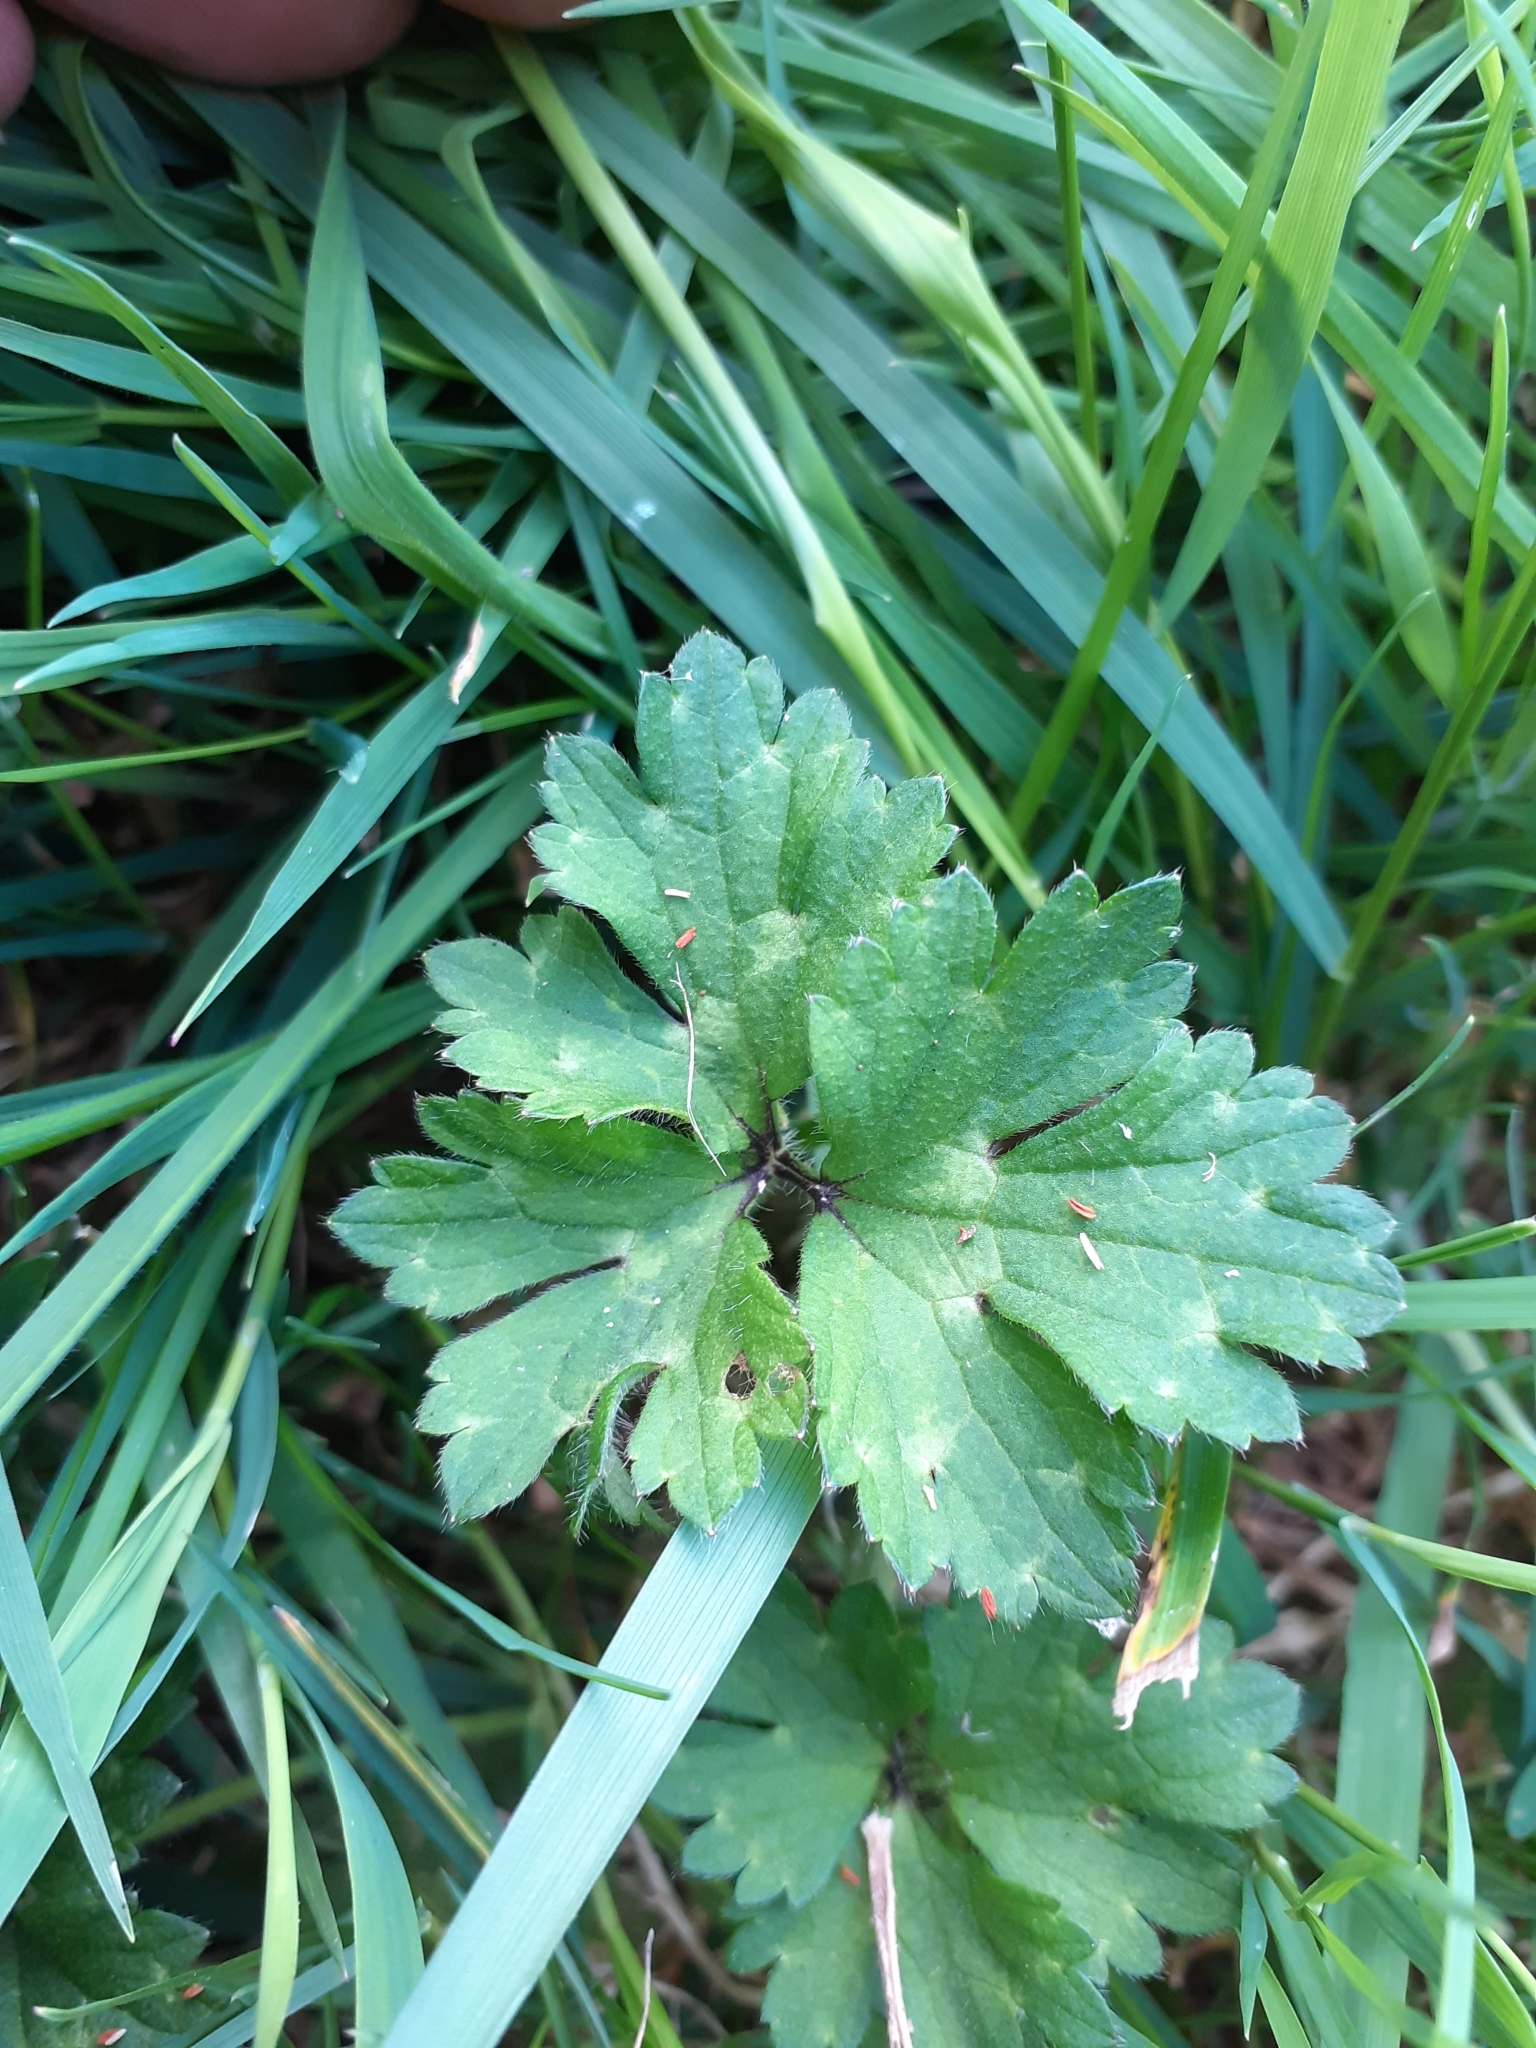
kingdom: Plantae
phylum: Tracheophyta
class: Magnoliopsida
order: Ranunculales
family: Ranunculaceae
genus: Ranunculus
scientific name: Ranunculus repens
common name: Creeping buttercup
